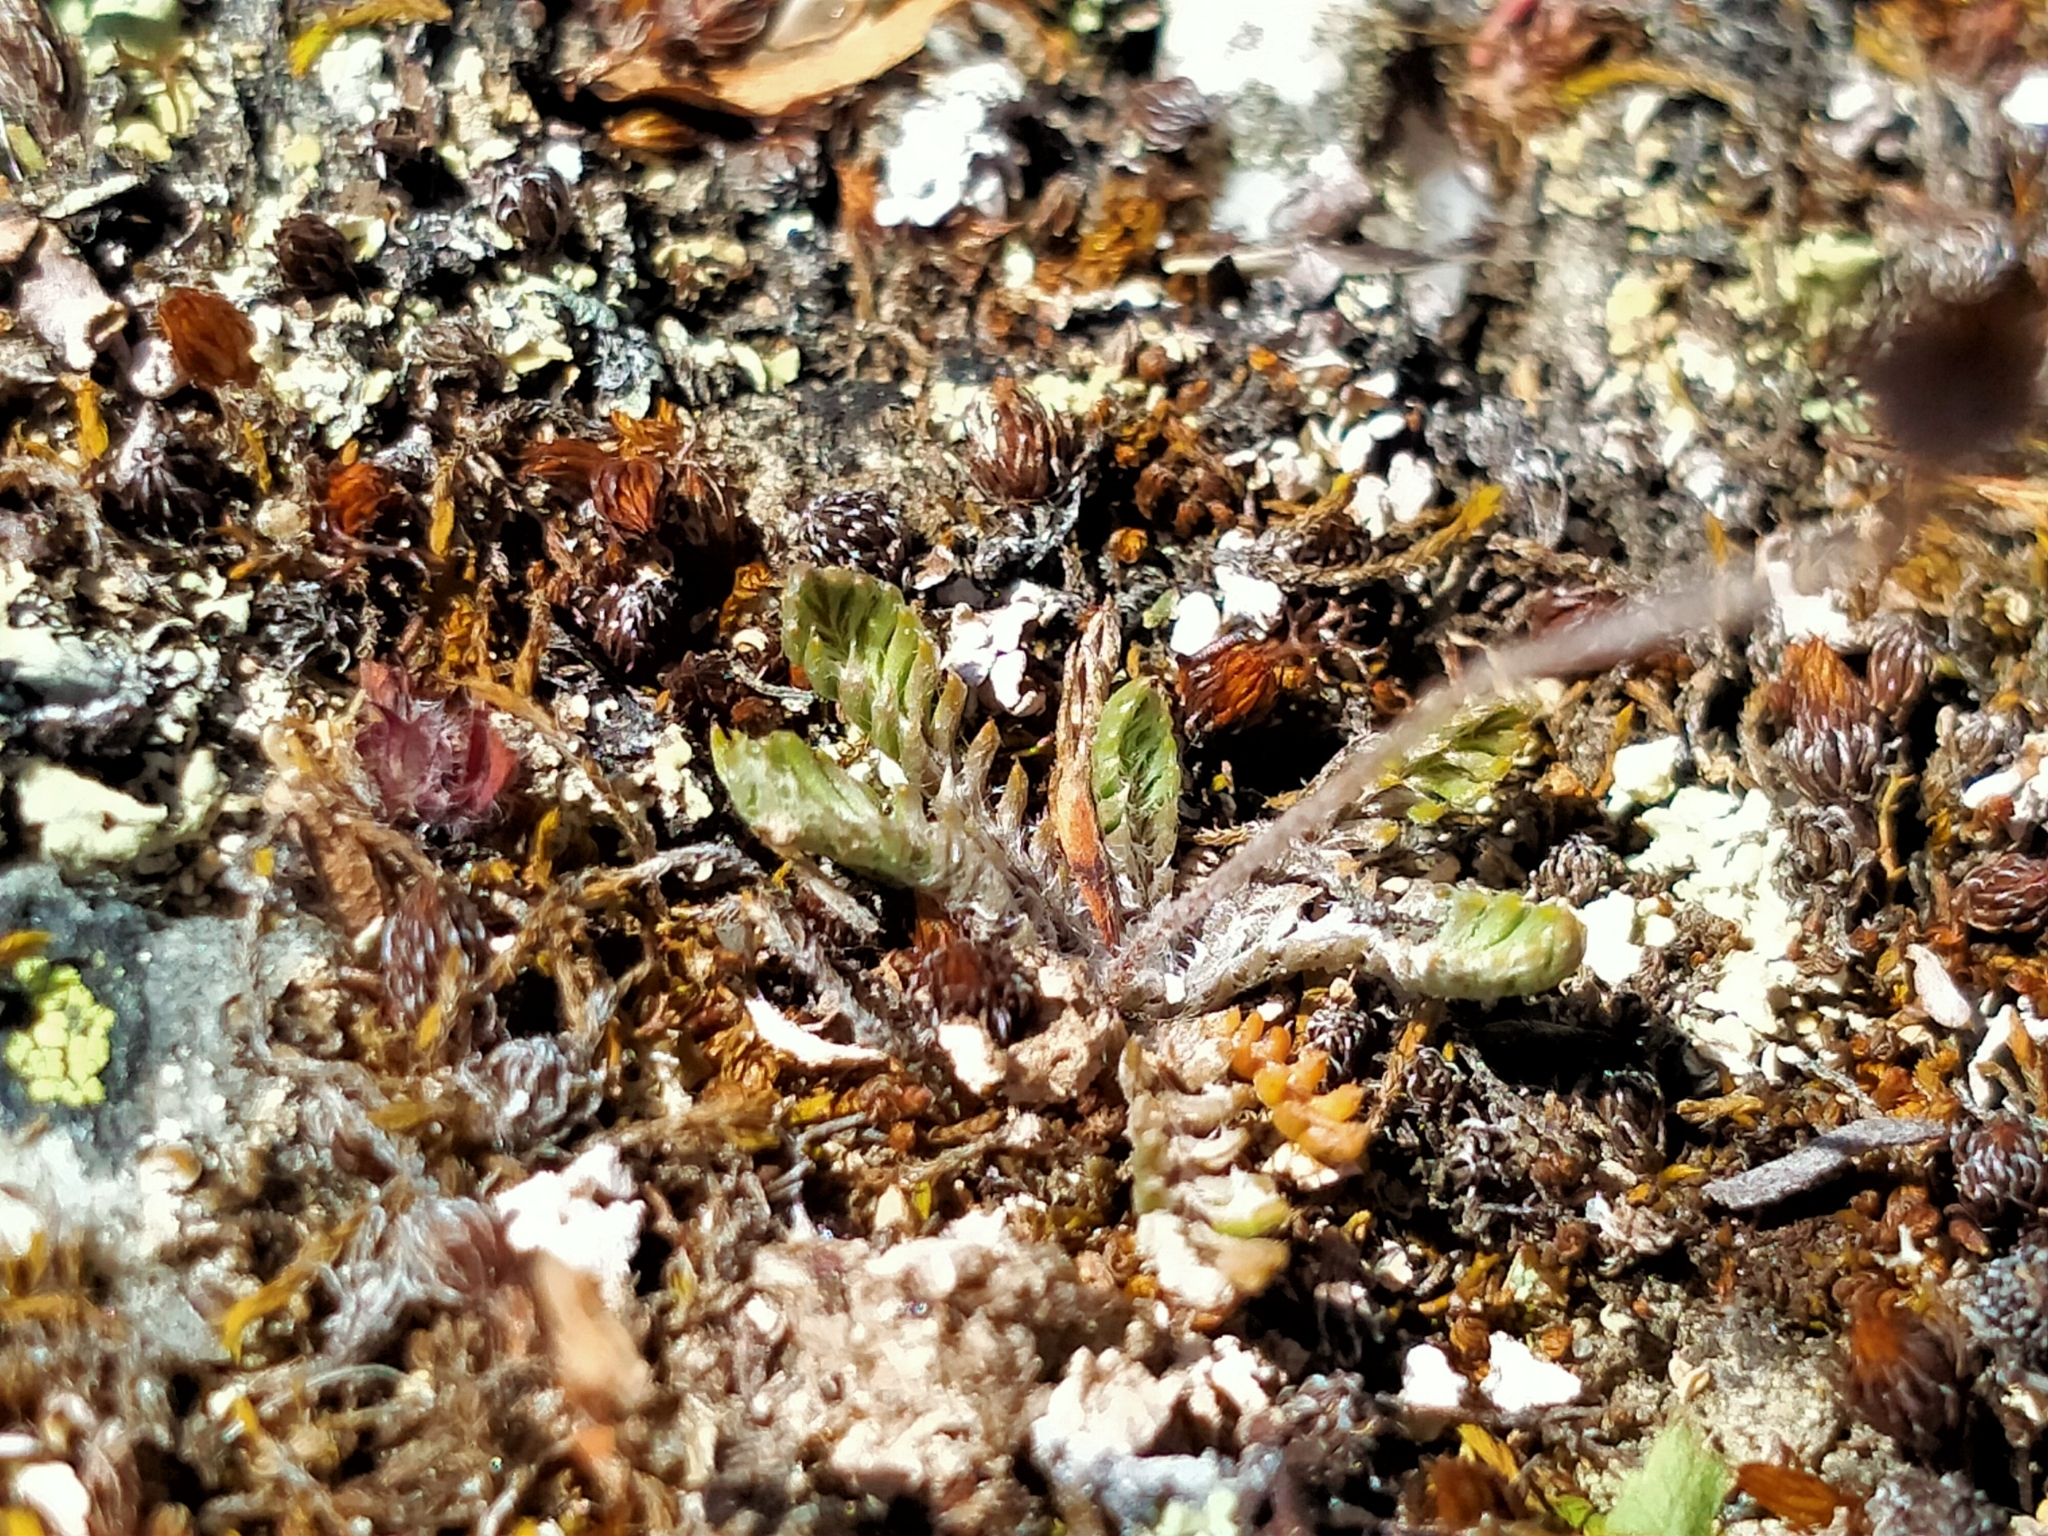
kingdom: Plantae
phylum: Tracheophyta
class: Magnoliopsida
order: Asterales
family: Asteraceae
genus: Leptinella
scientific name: Leptinella conjuncta
